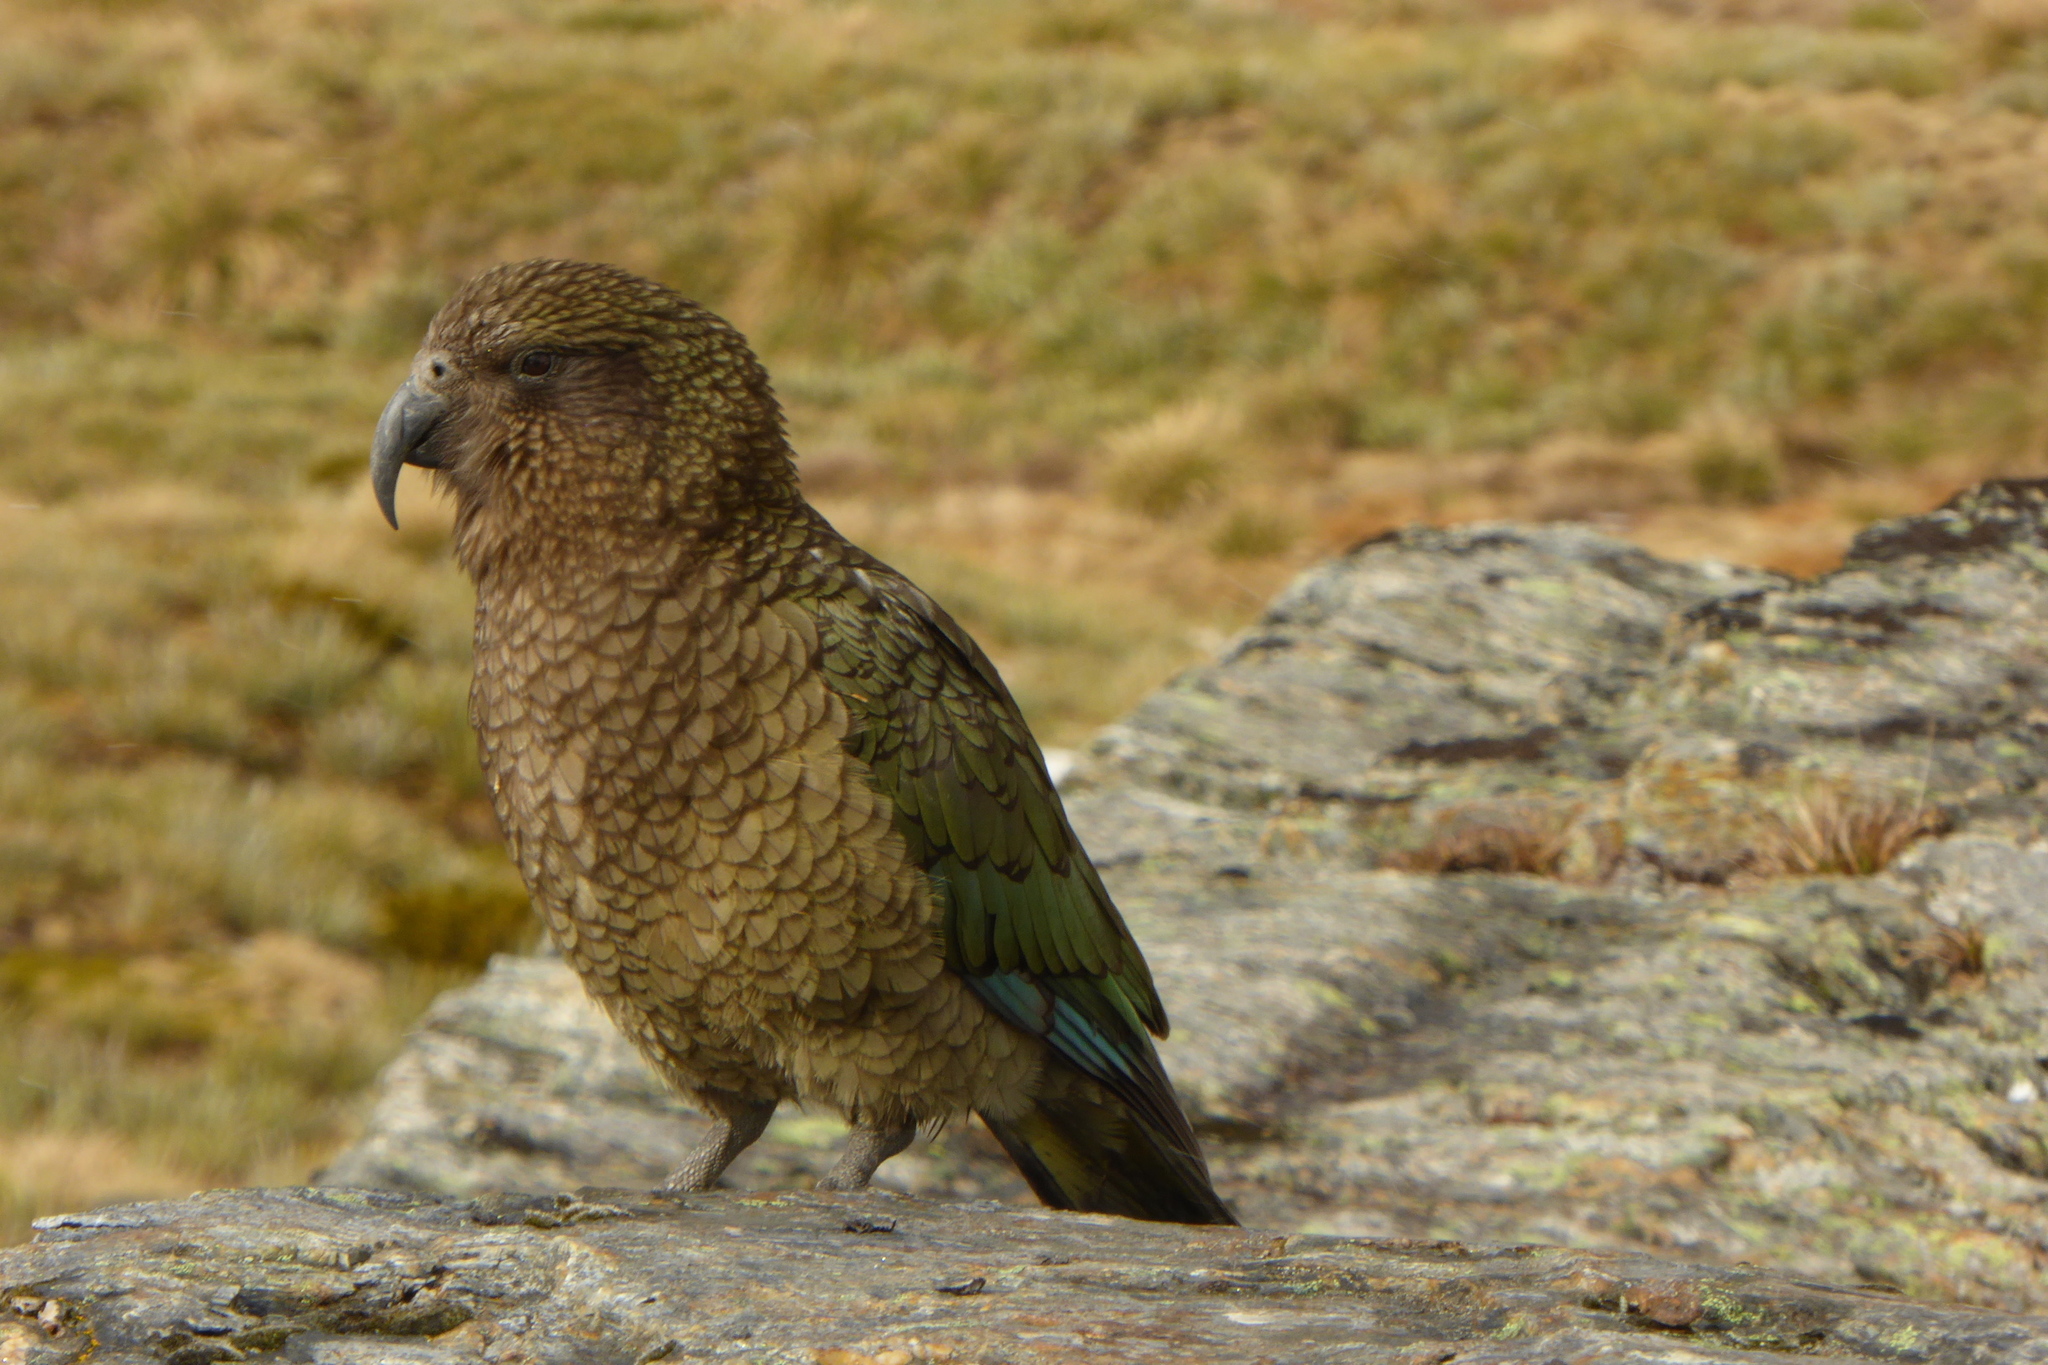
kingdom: Animalia
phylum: Chordata
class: Aves
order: Psittaciformes
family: Psittacidae
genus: Nestor
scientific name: Nestor notabilis
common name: Kea
